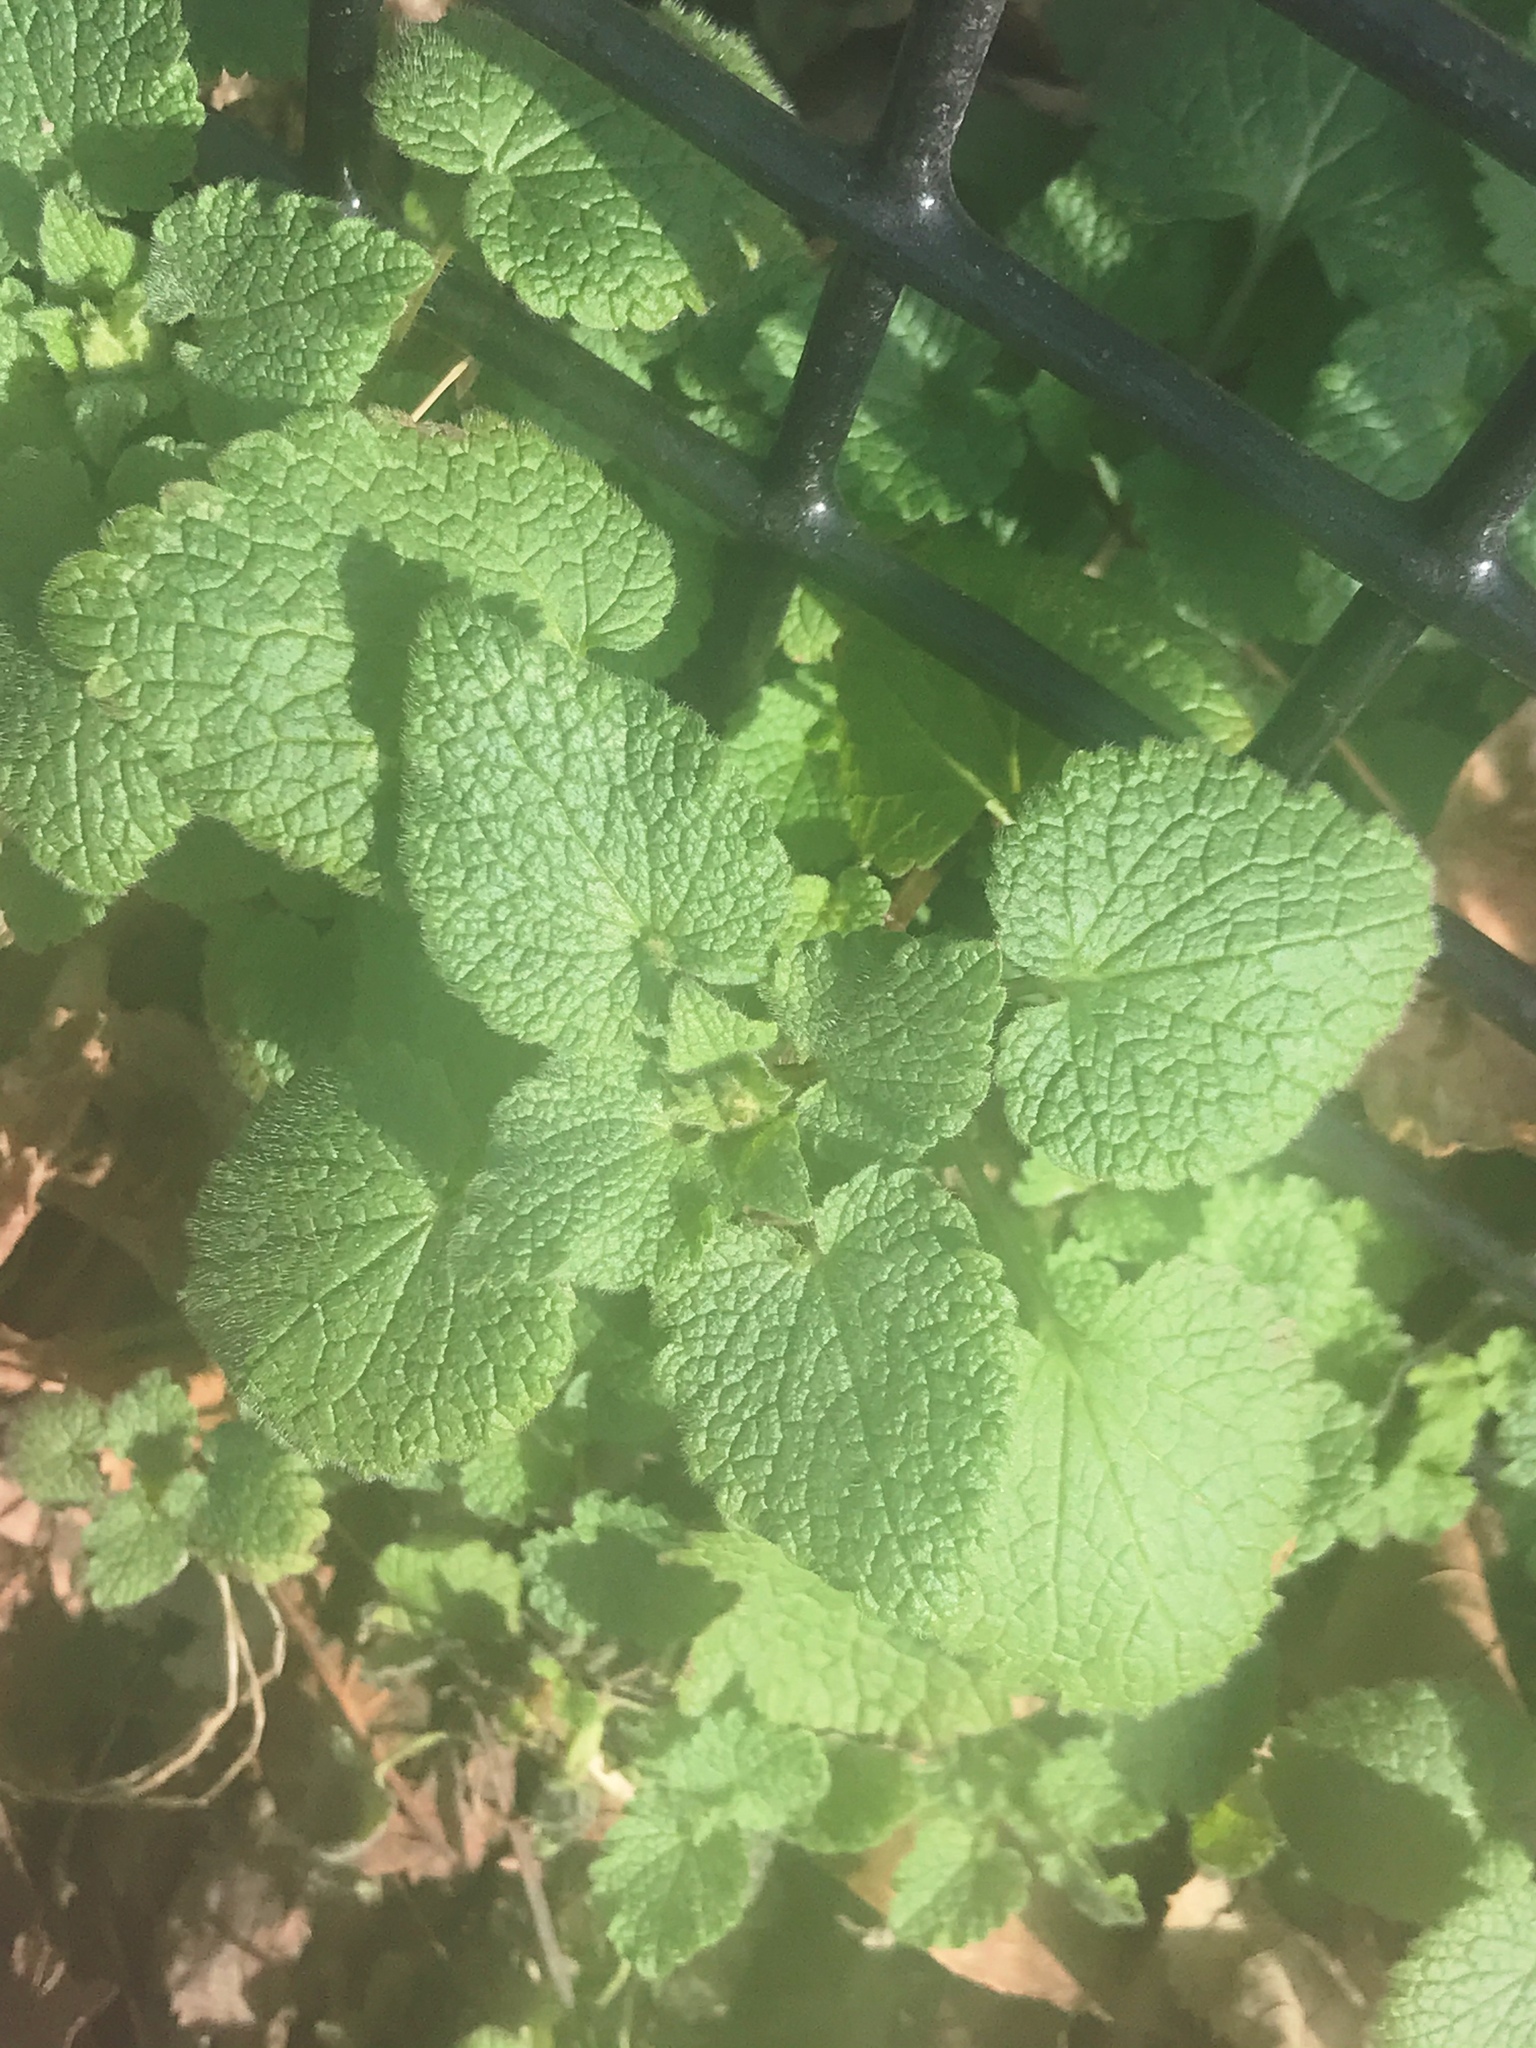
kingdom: Plantae
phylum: Tracheophyta
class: Magnoliopsida
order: Lamiales
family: Lamiaceae
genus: Lamium
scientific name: Lamium purpureum
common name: Red dead-nettle
